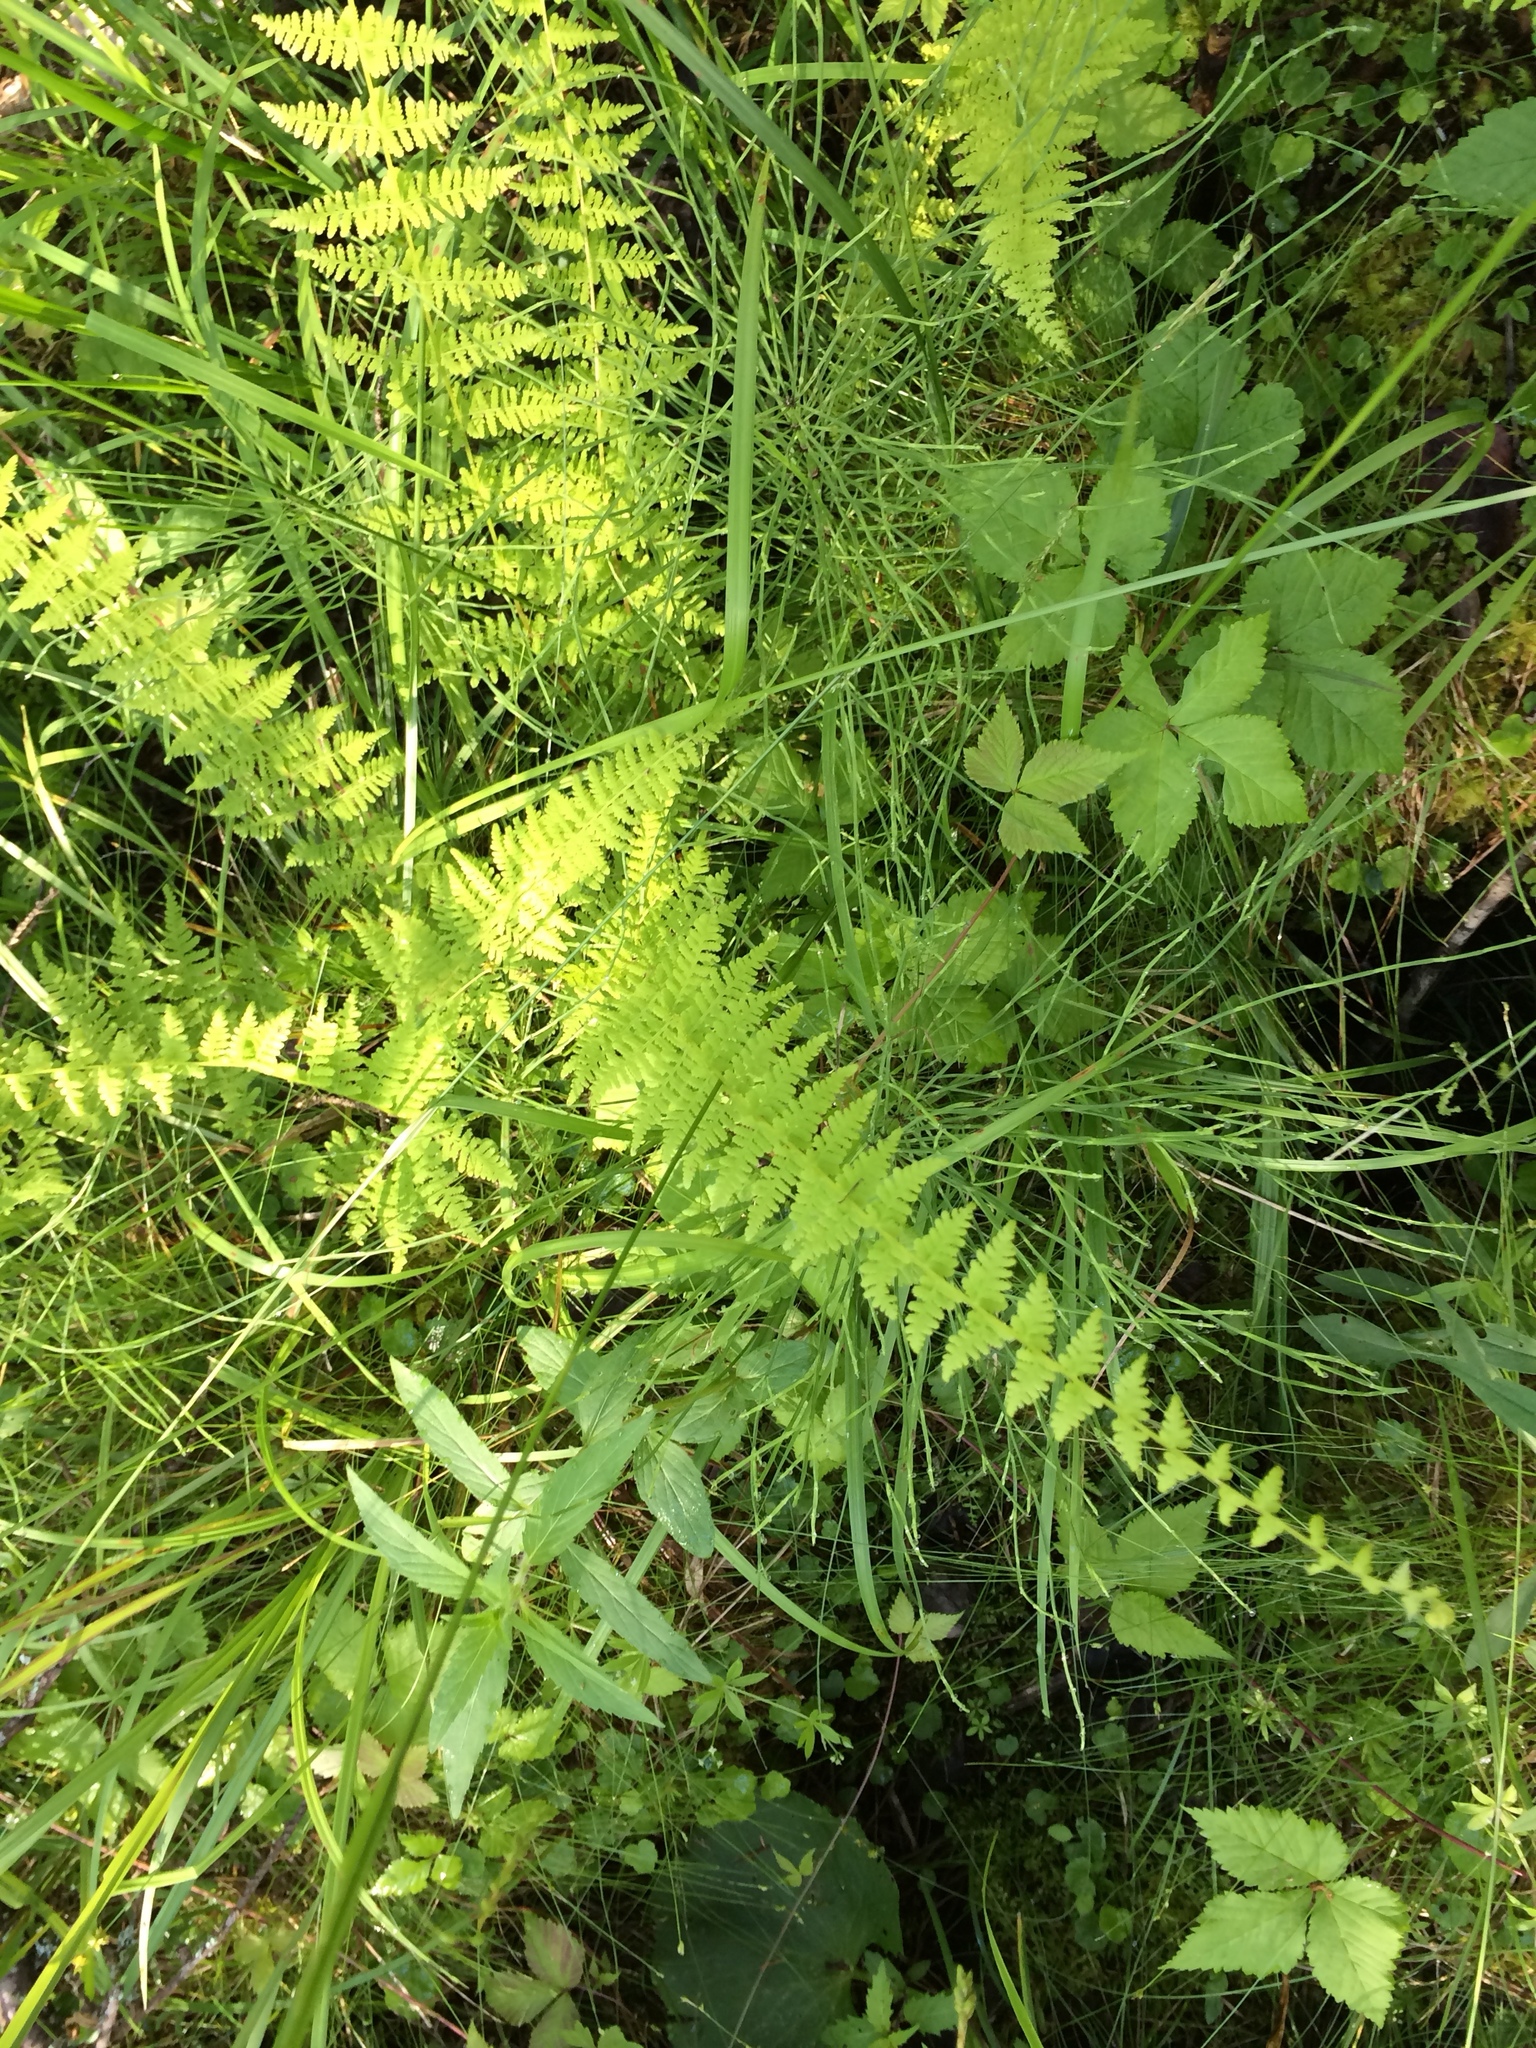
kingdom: Plantae
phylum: Tracheophyta
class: Polypodiopsida
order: Polypodiales
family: Cystopteridaceae
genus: Cystopteris
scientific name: Cystopteris bulbifera
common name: Bulblet bladder fern
